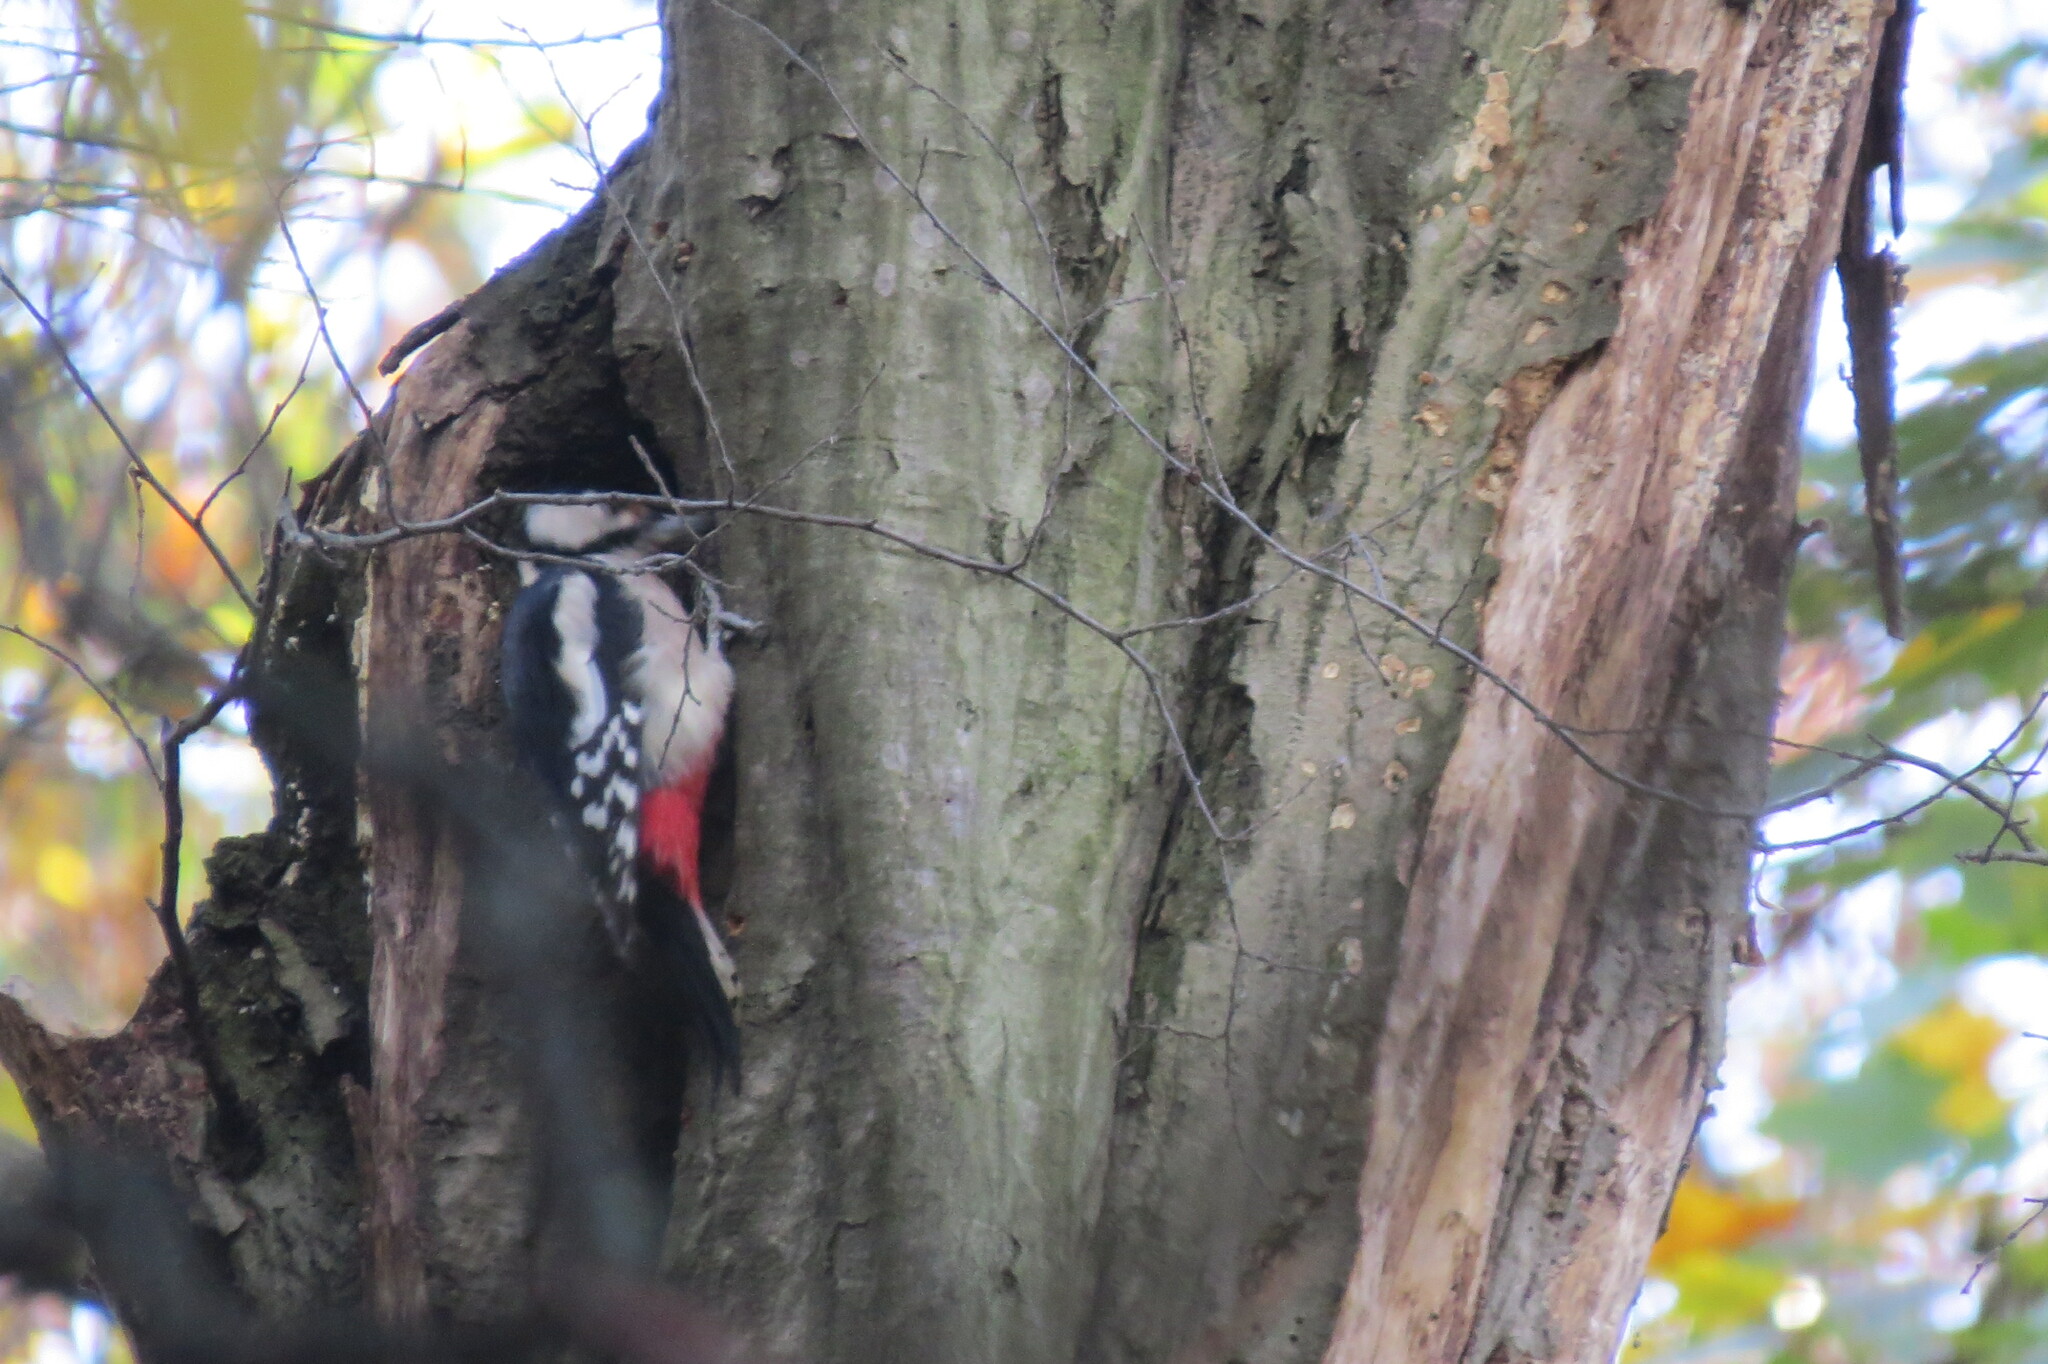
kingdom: Animalia
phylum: Chordata
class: Aves
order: Piciformes
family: Picidae
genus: Dendrocopos
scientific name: Dendrocopos major
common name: Great spotted woodpecker
